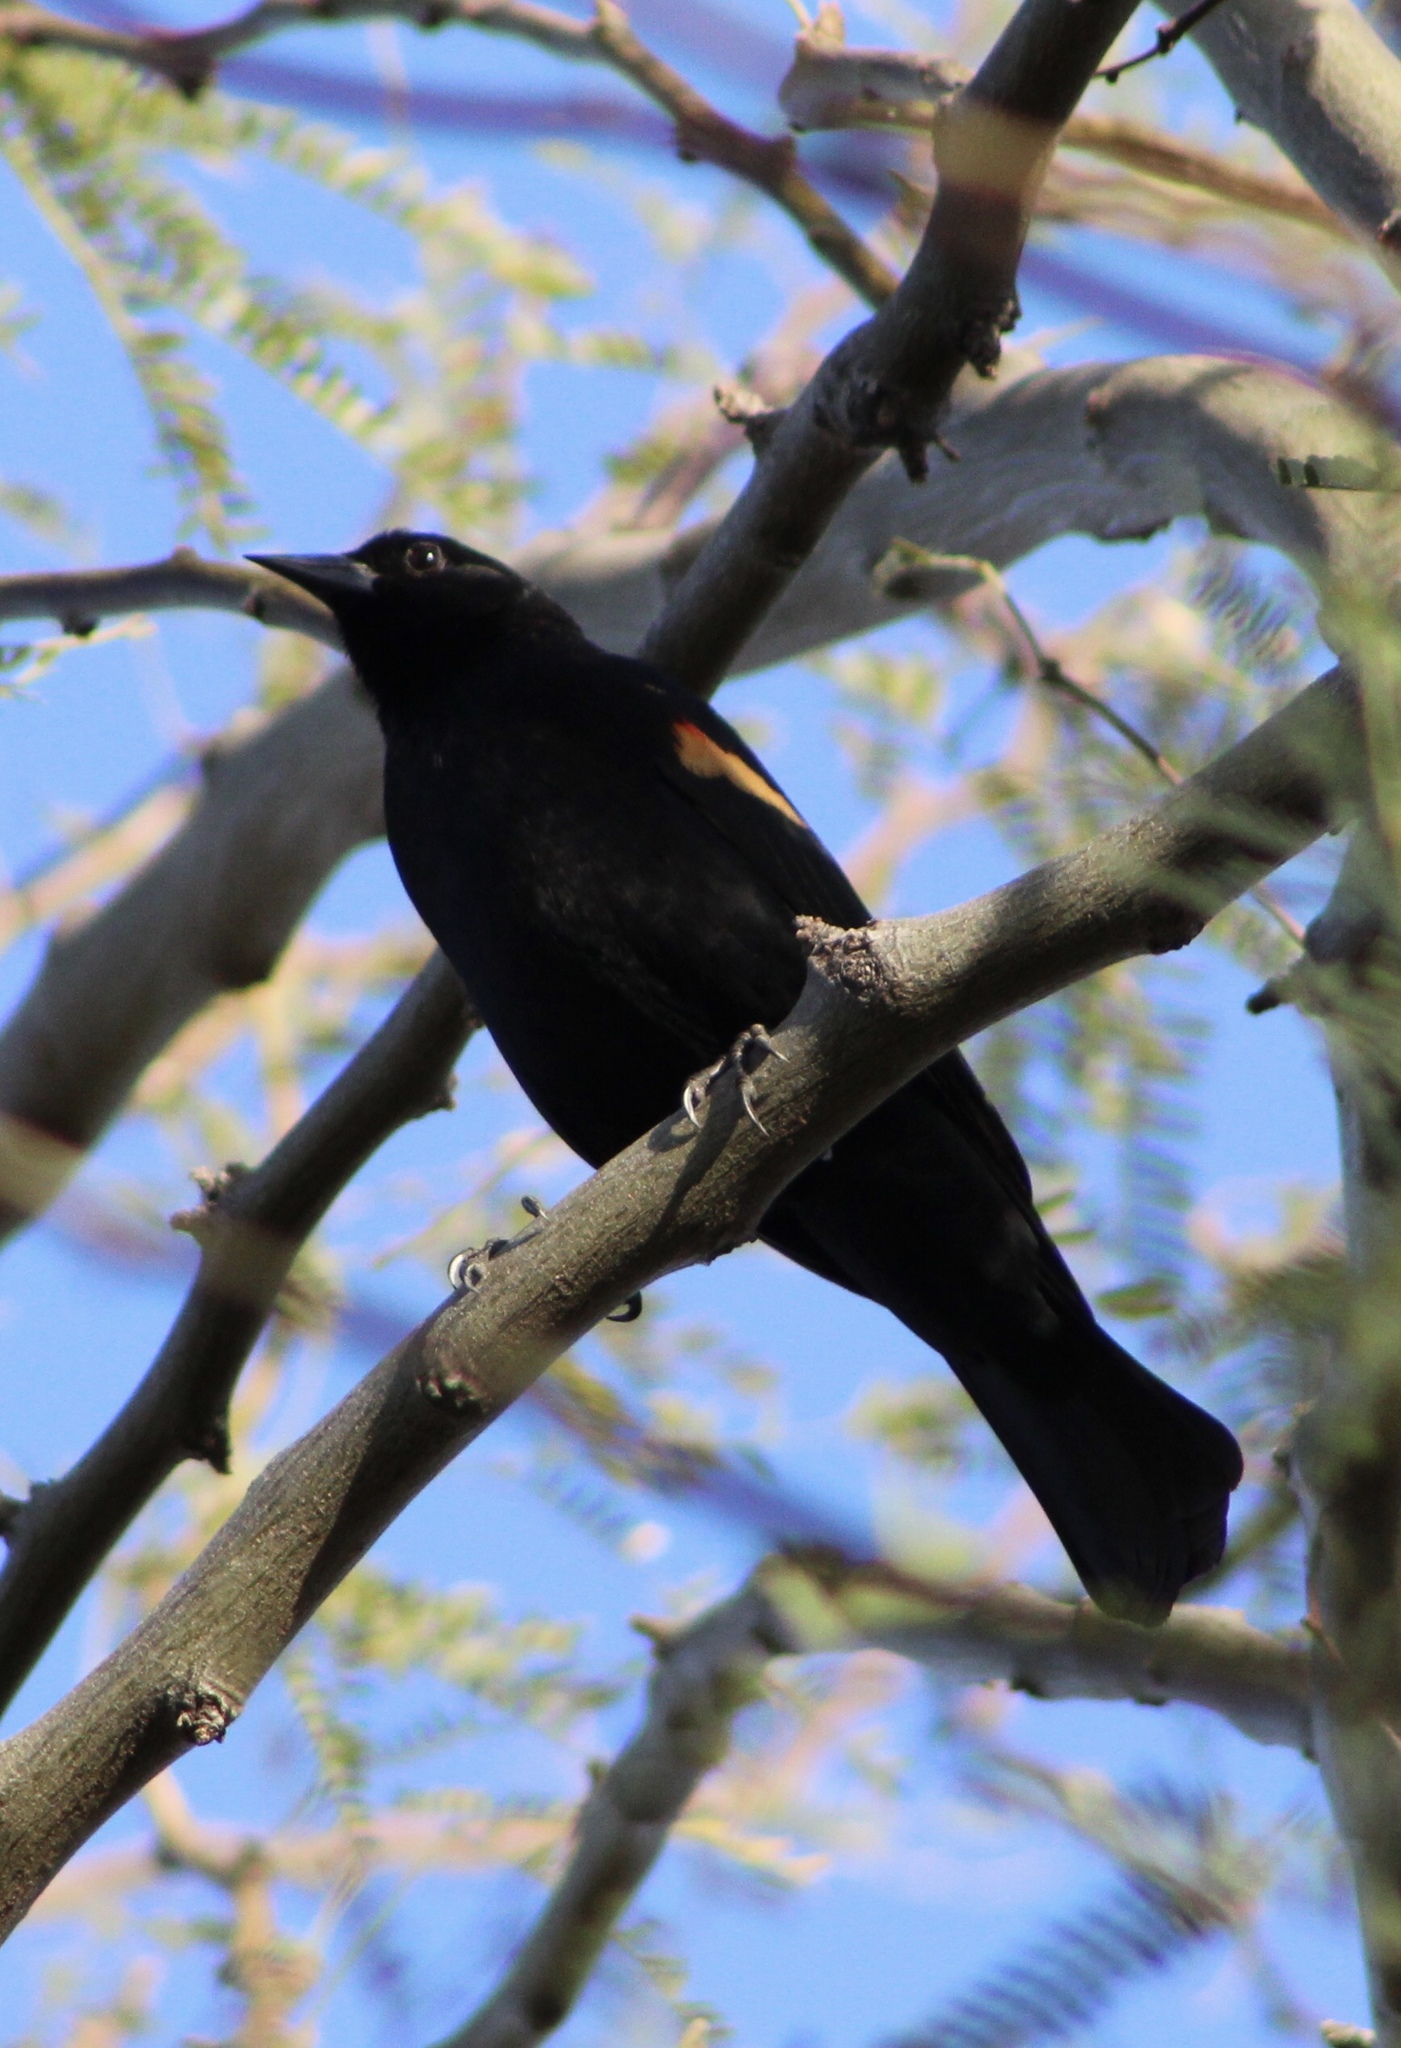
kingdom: Animalia
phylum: Chordata
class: Aves
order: Passeriformes
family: Icteridae
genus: Agelaius
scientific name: Agelaius phoeniceus
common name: Red-winged blackbird
